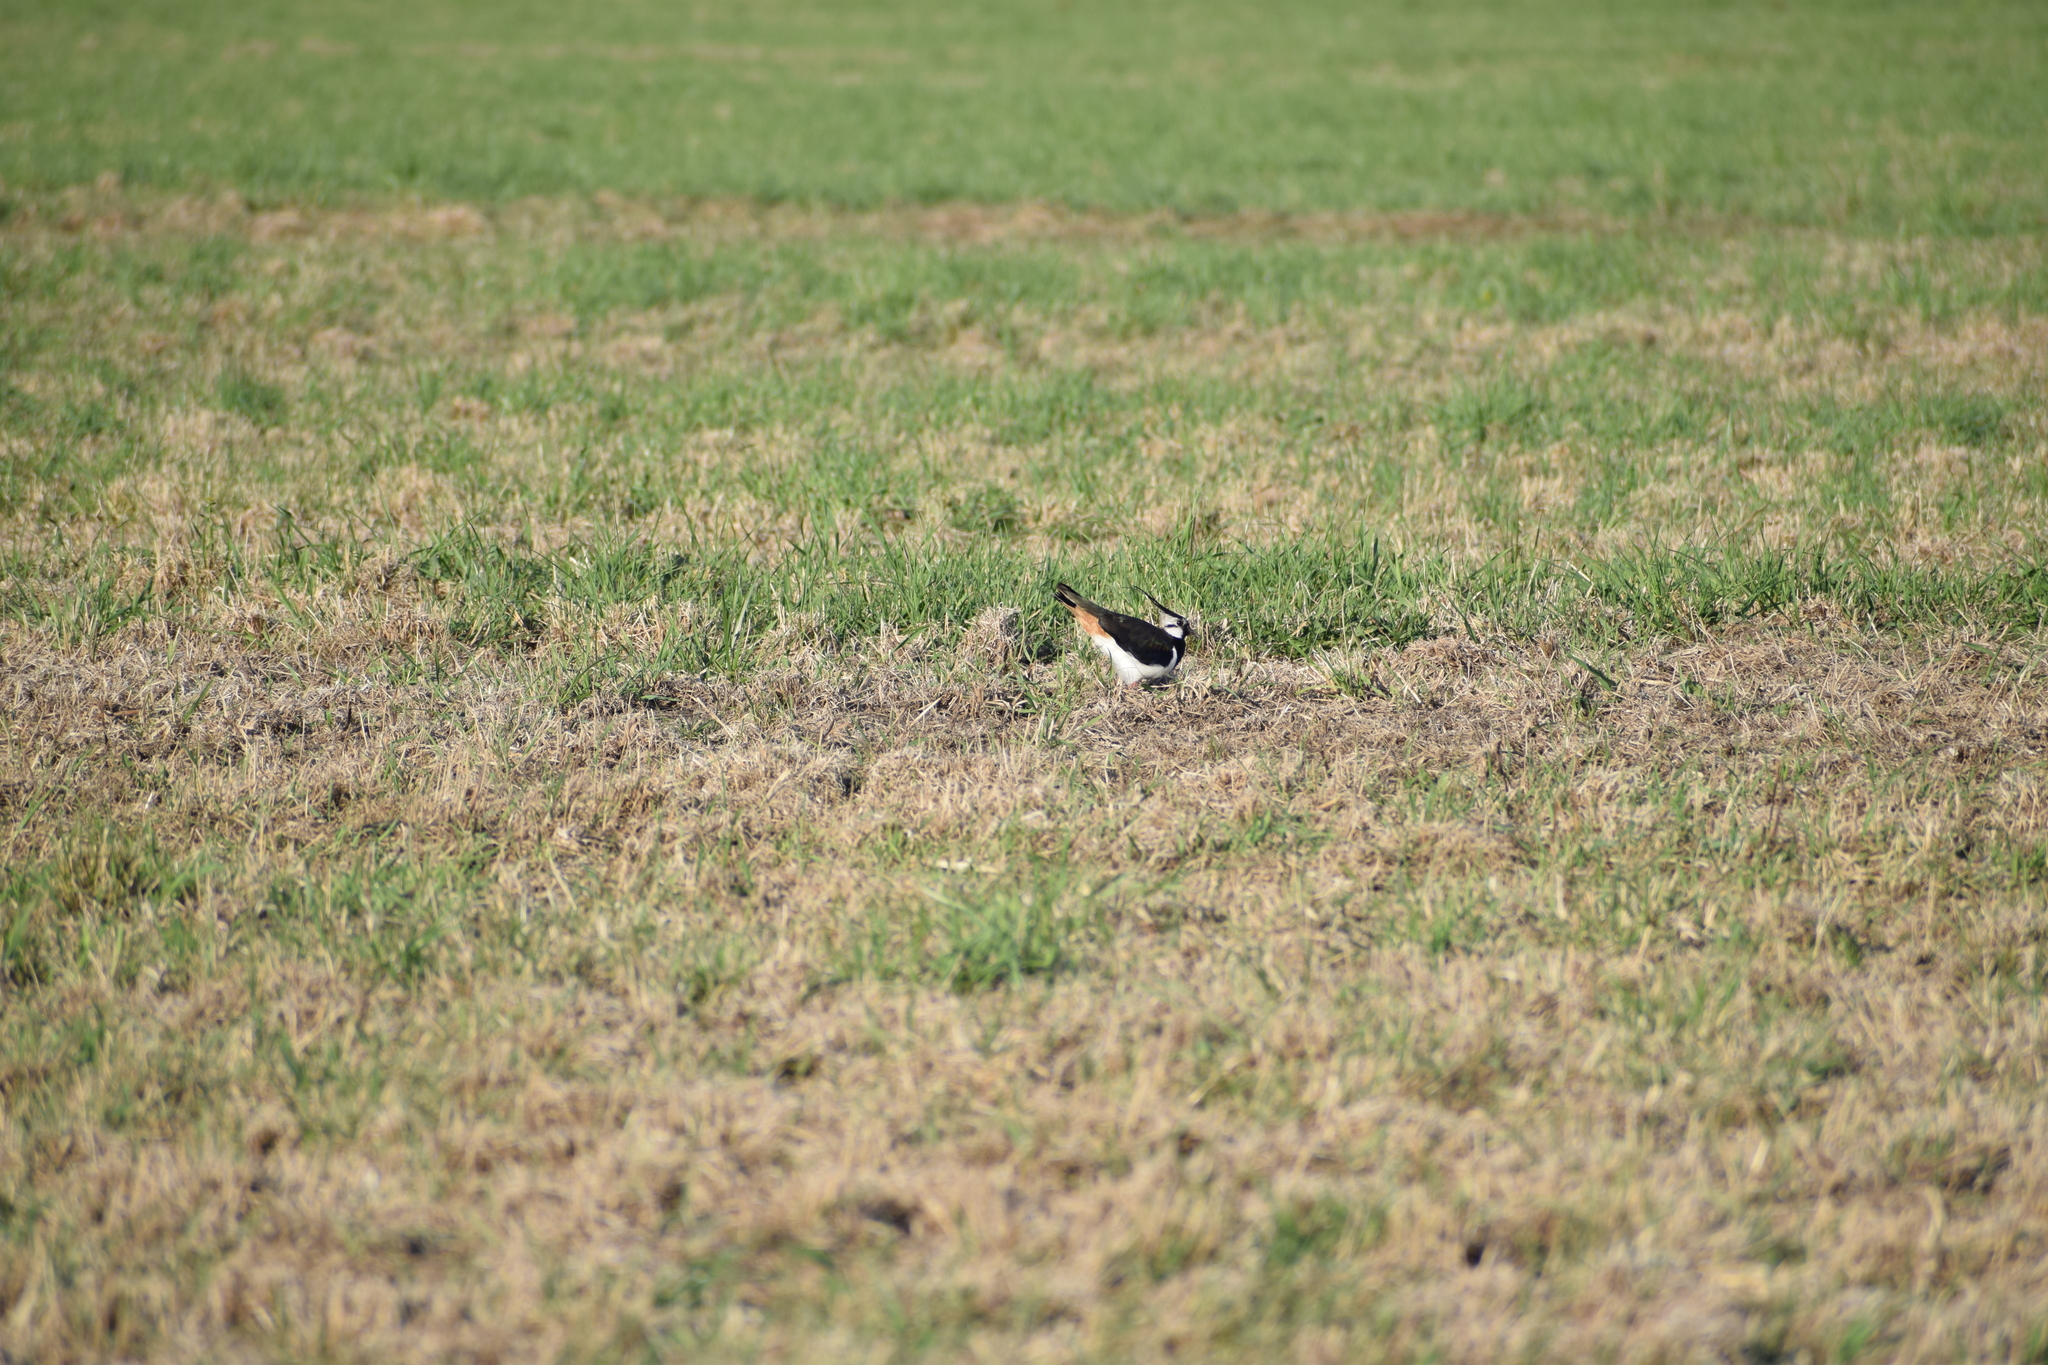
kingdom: Animalia
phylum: Chordata
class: Aves
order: Charadriiformes
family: Charadriidae
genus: Vanellus
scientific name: Vanellus vanellus
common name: Northern lapwing
